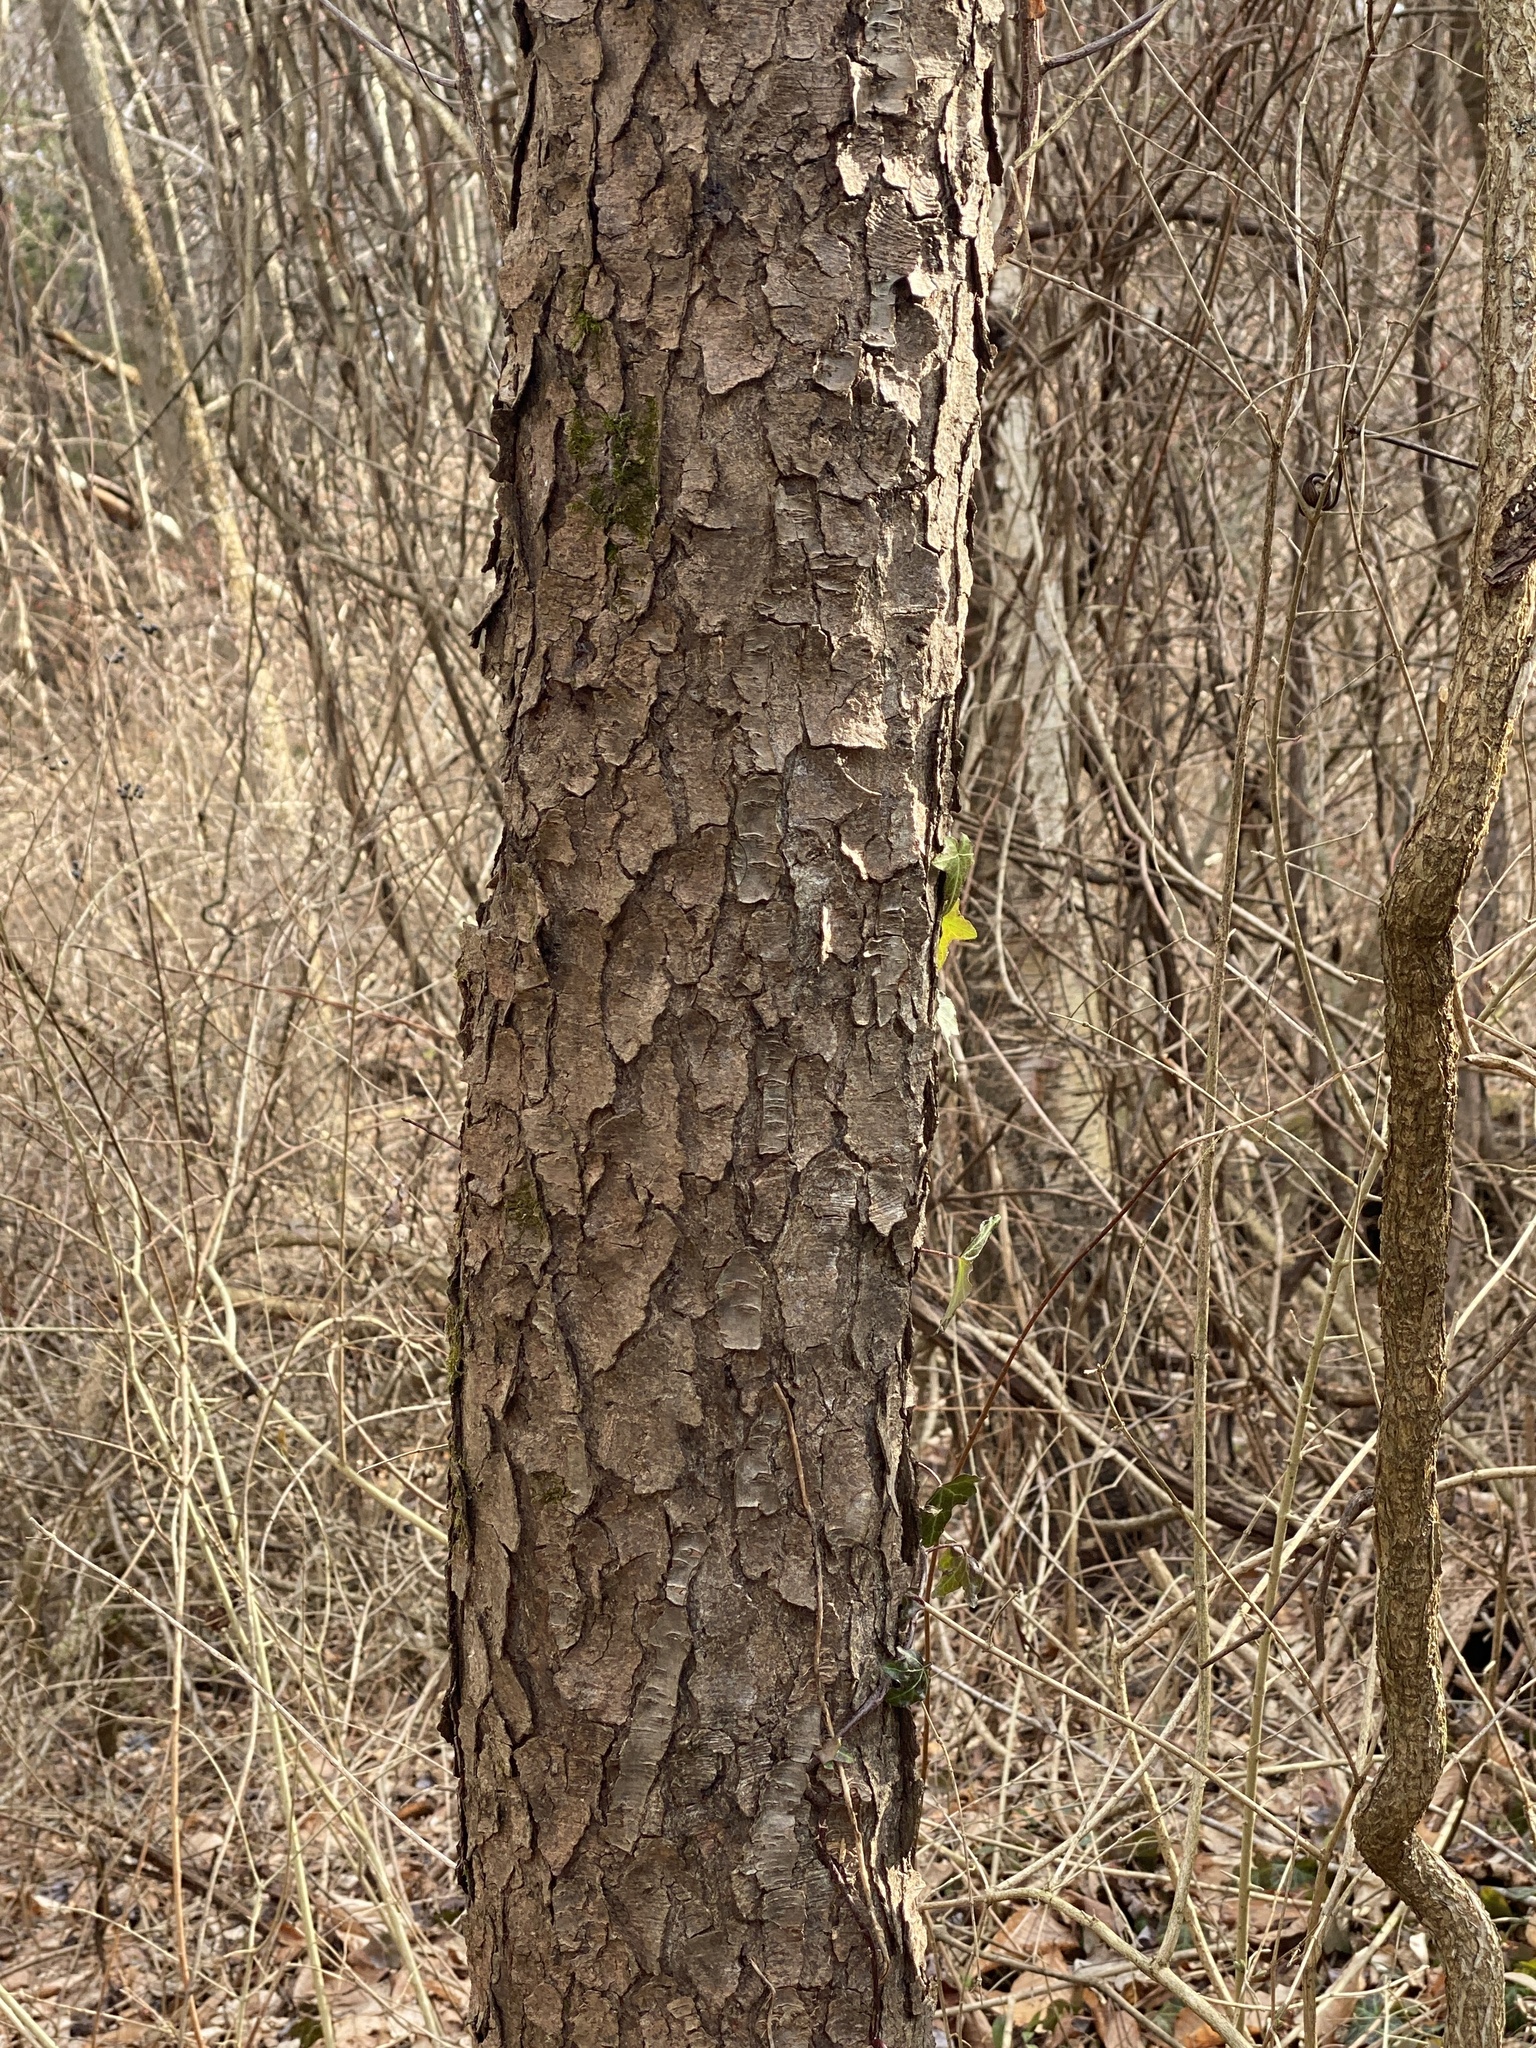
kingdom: Plantae
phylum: Tracheophyta
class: Magnoliopsida
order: Rosales
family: Rosaceae
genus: Prunus
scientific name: Prunus serotina
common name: Black cherry
